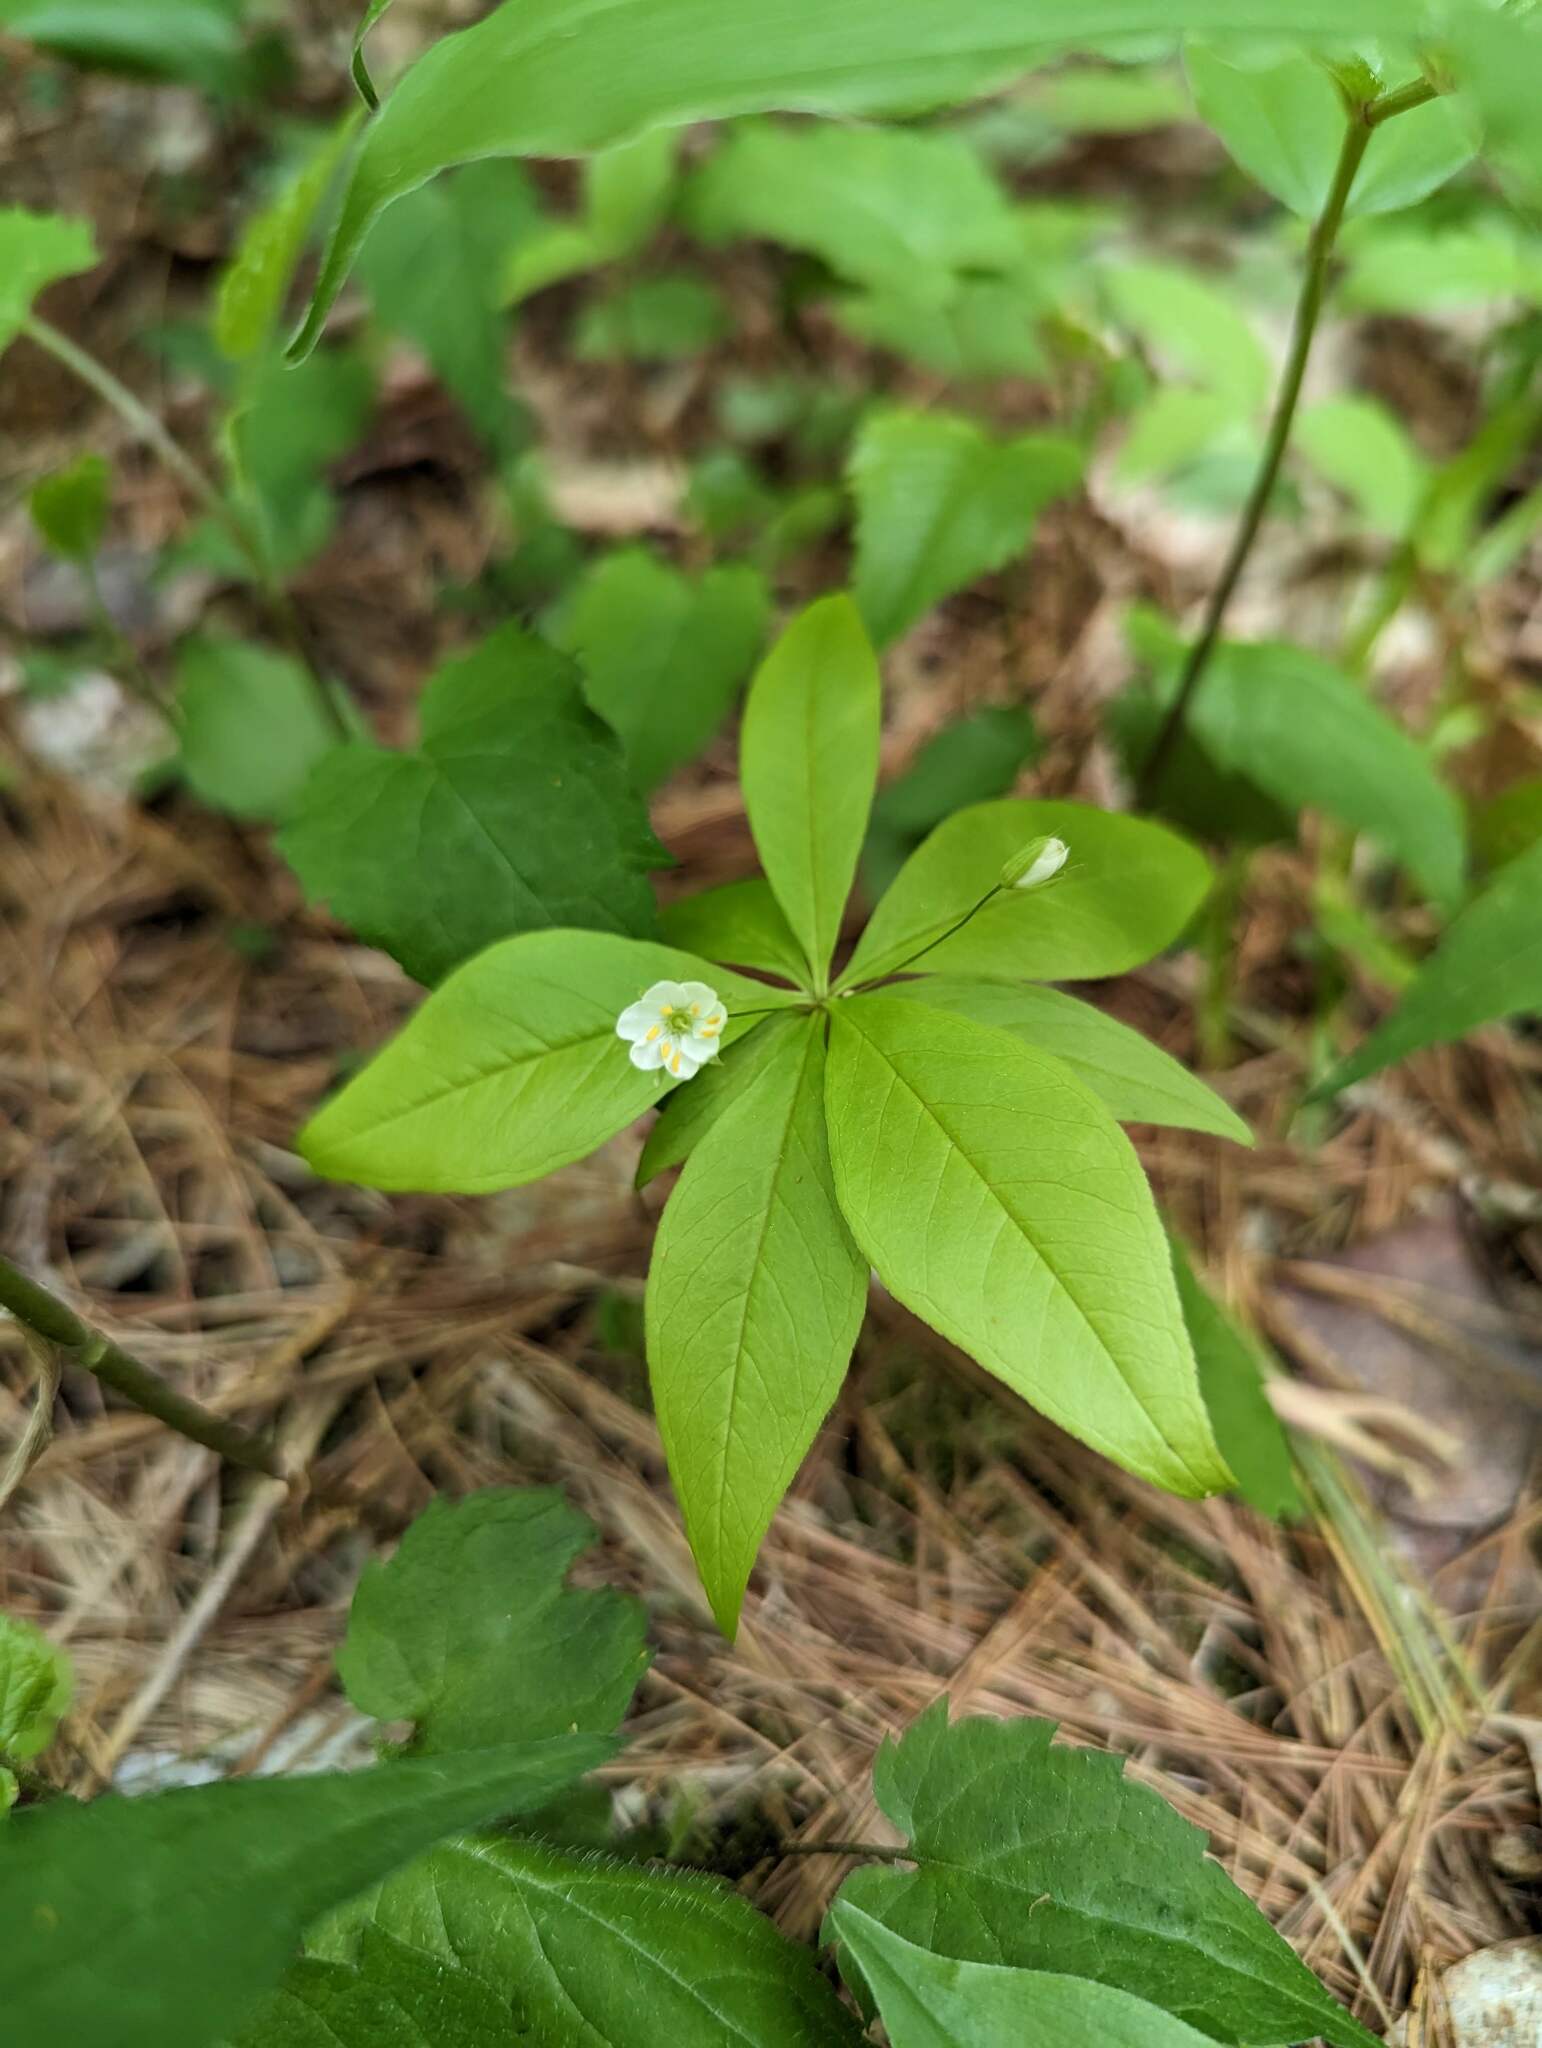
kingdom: Plantae
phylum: Tracheophyta
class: Magnoliopsida
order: Ericales
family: Primulaceae
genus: Lysimachia
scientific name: Lysimachia borealis
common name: American starflower
